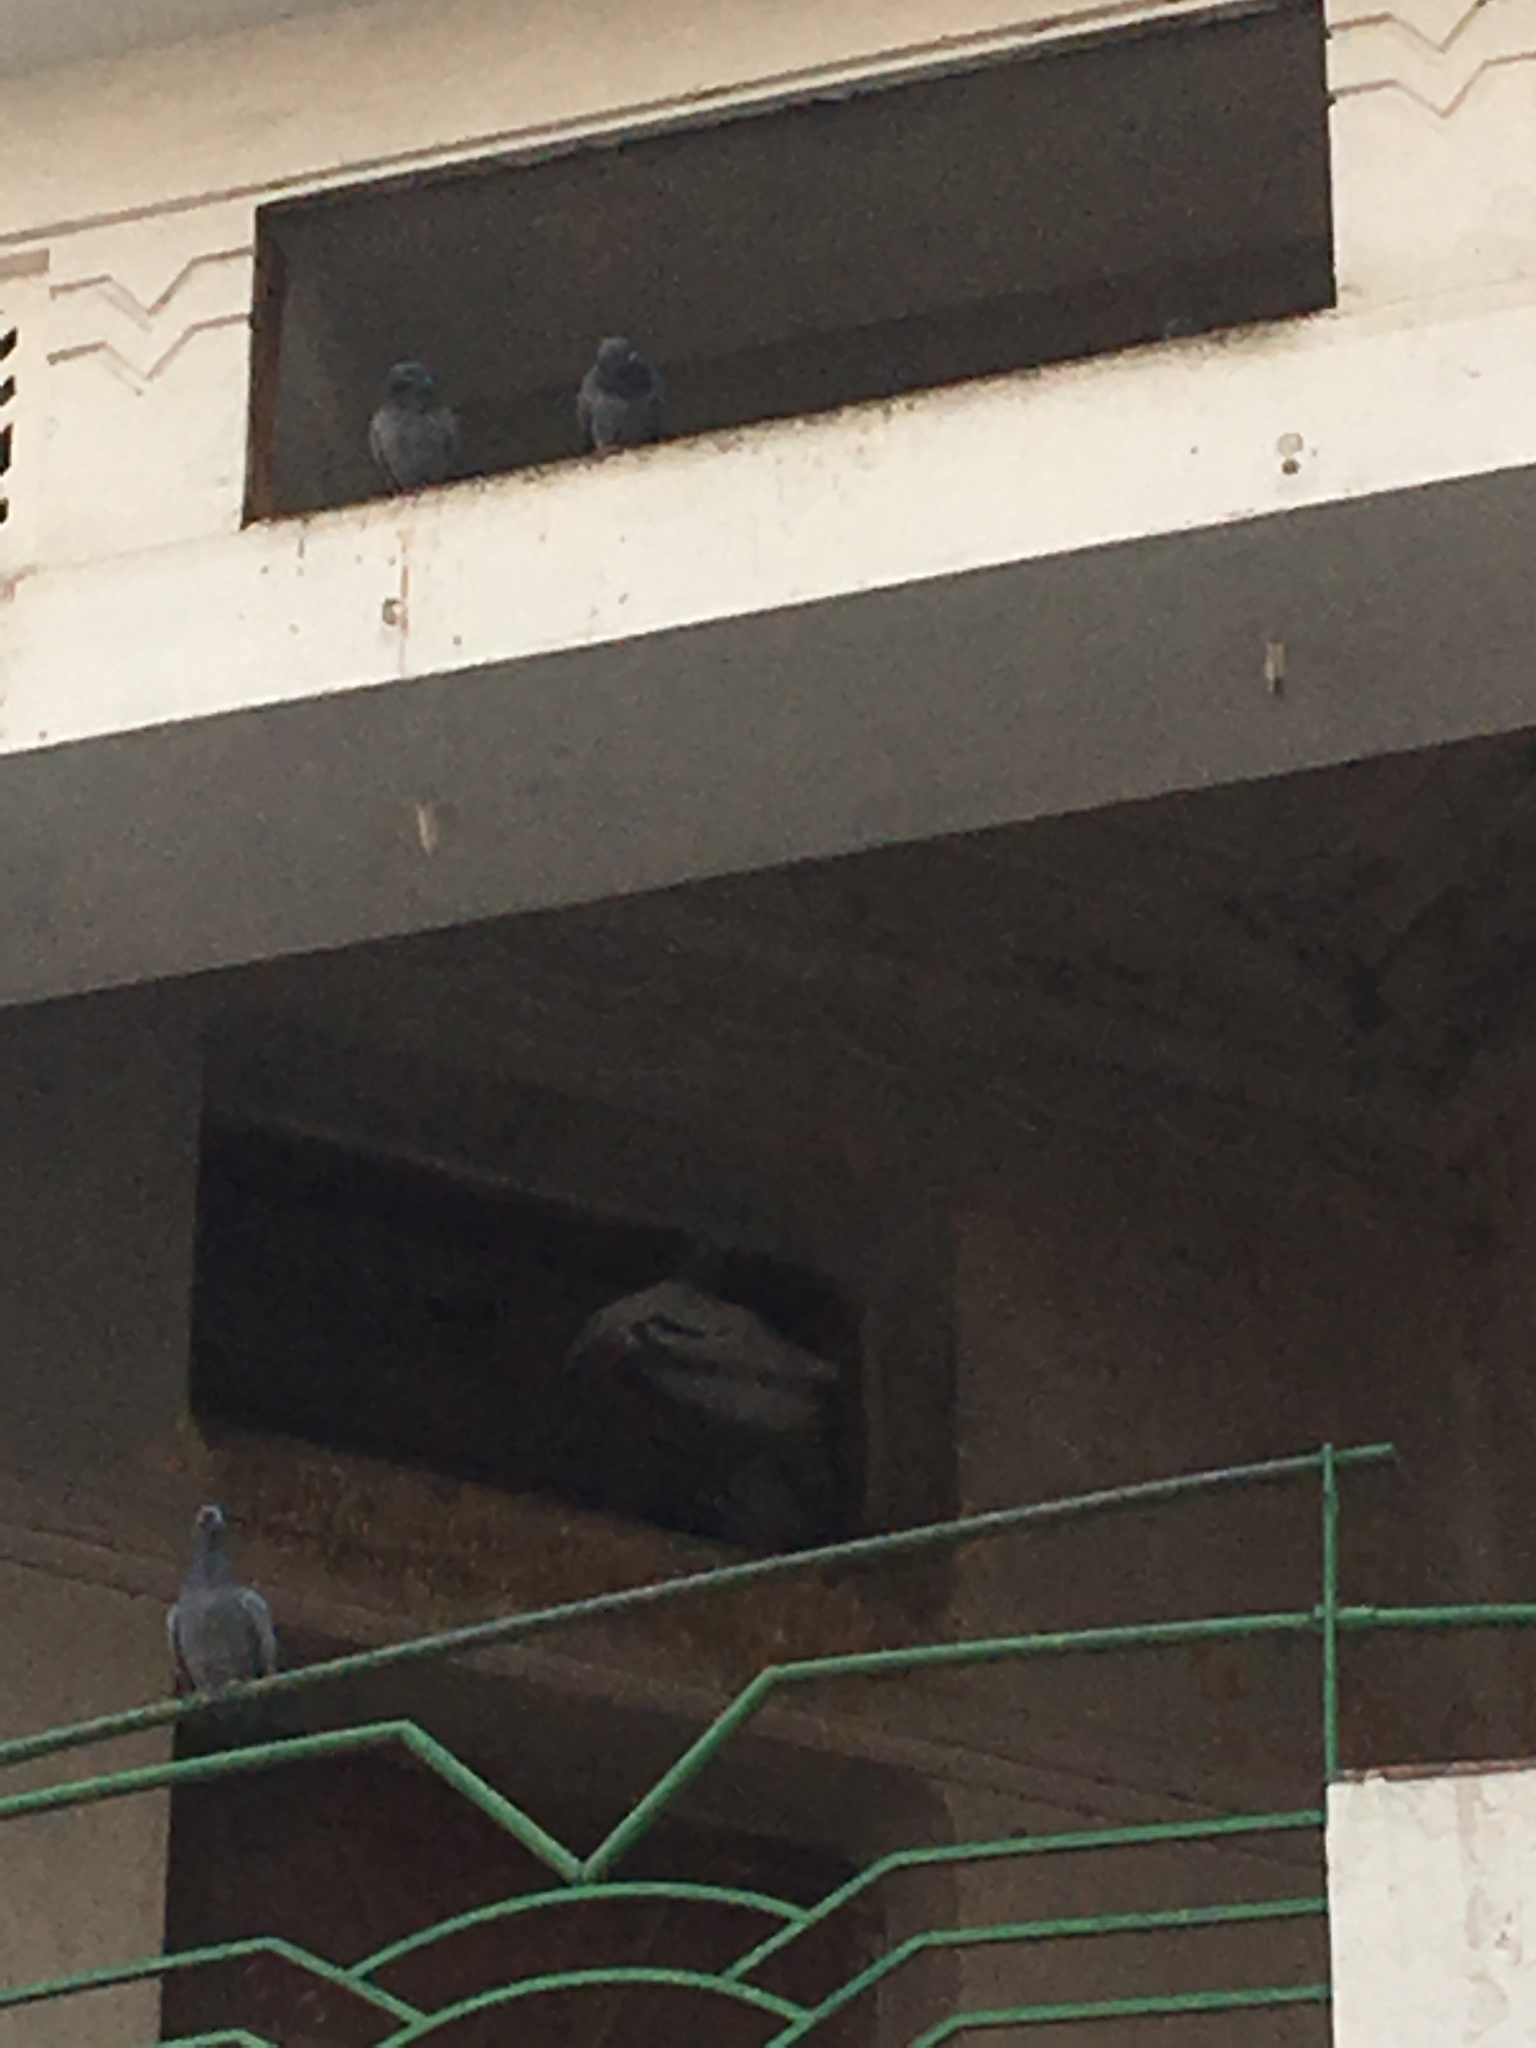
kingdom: Animalia
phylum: Chordata
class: Aves
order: Columbiformes
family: Columbidae
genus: Columba
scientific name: Columba livia
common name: Rock pigeon
